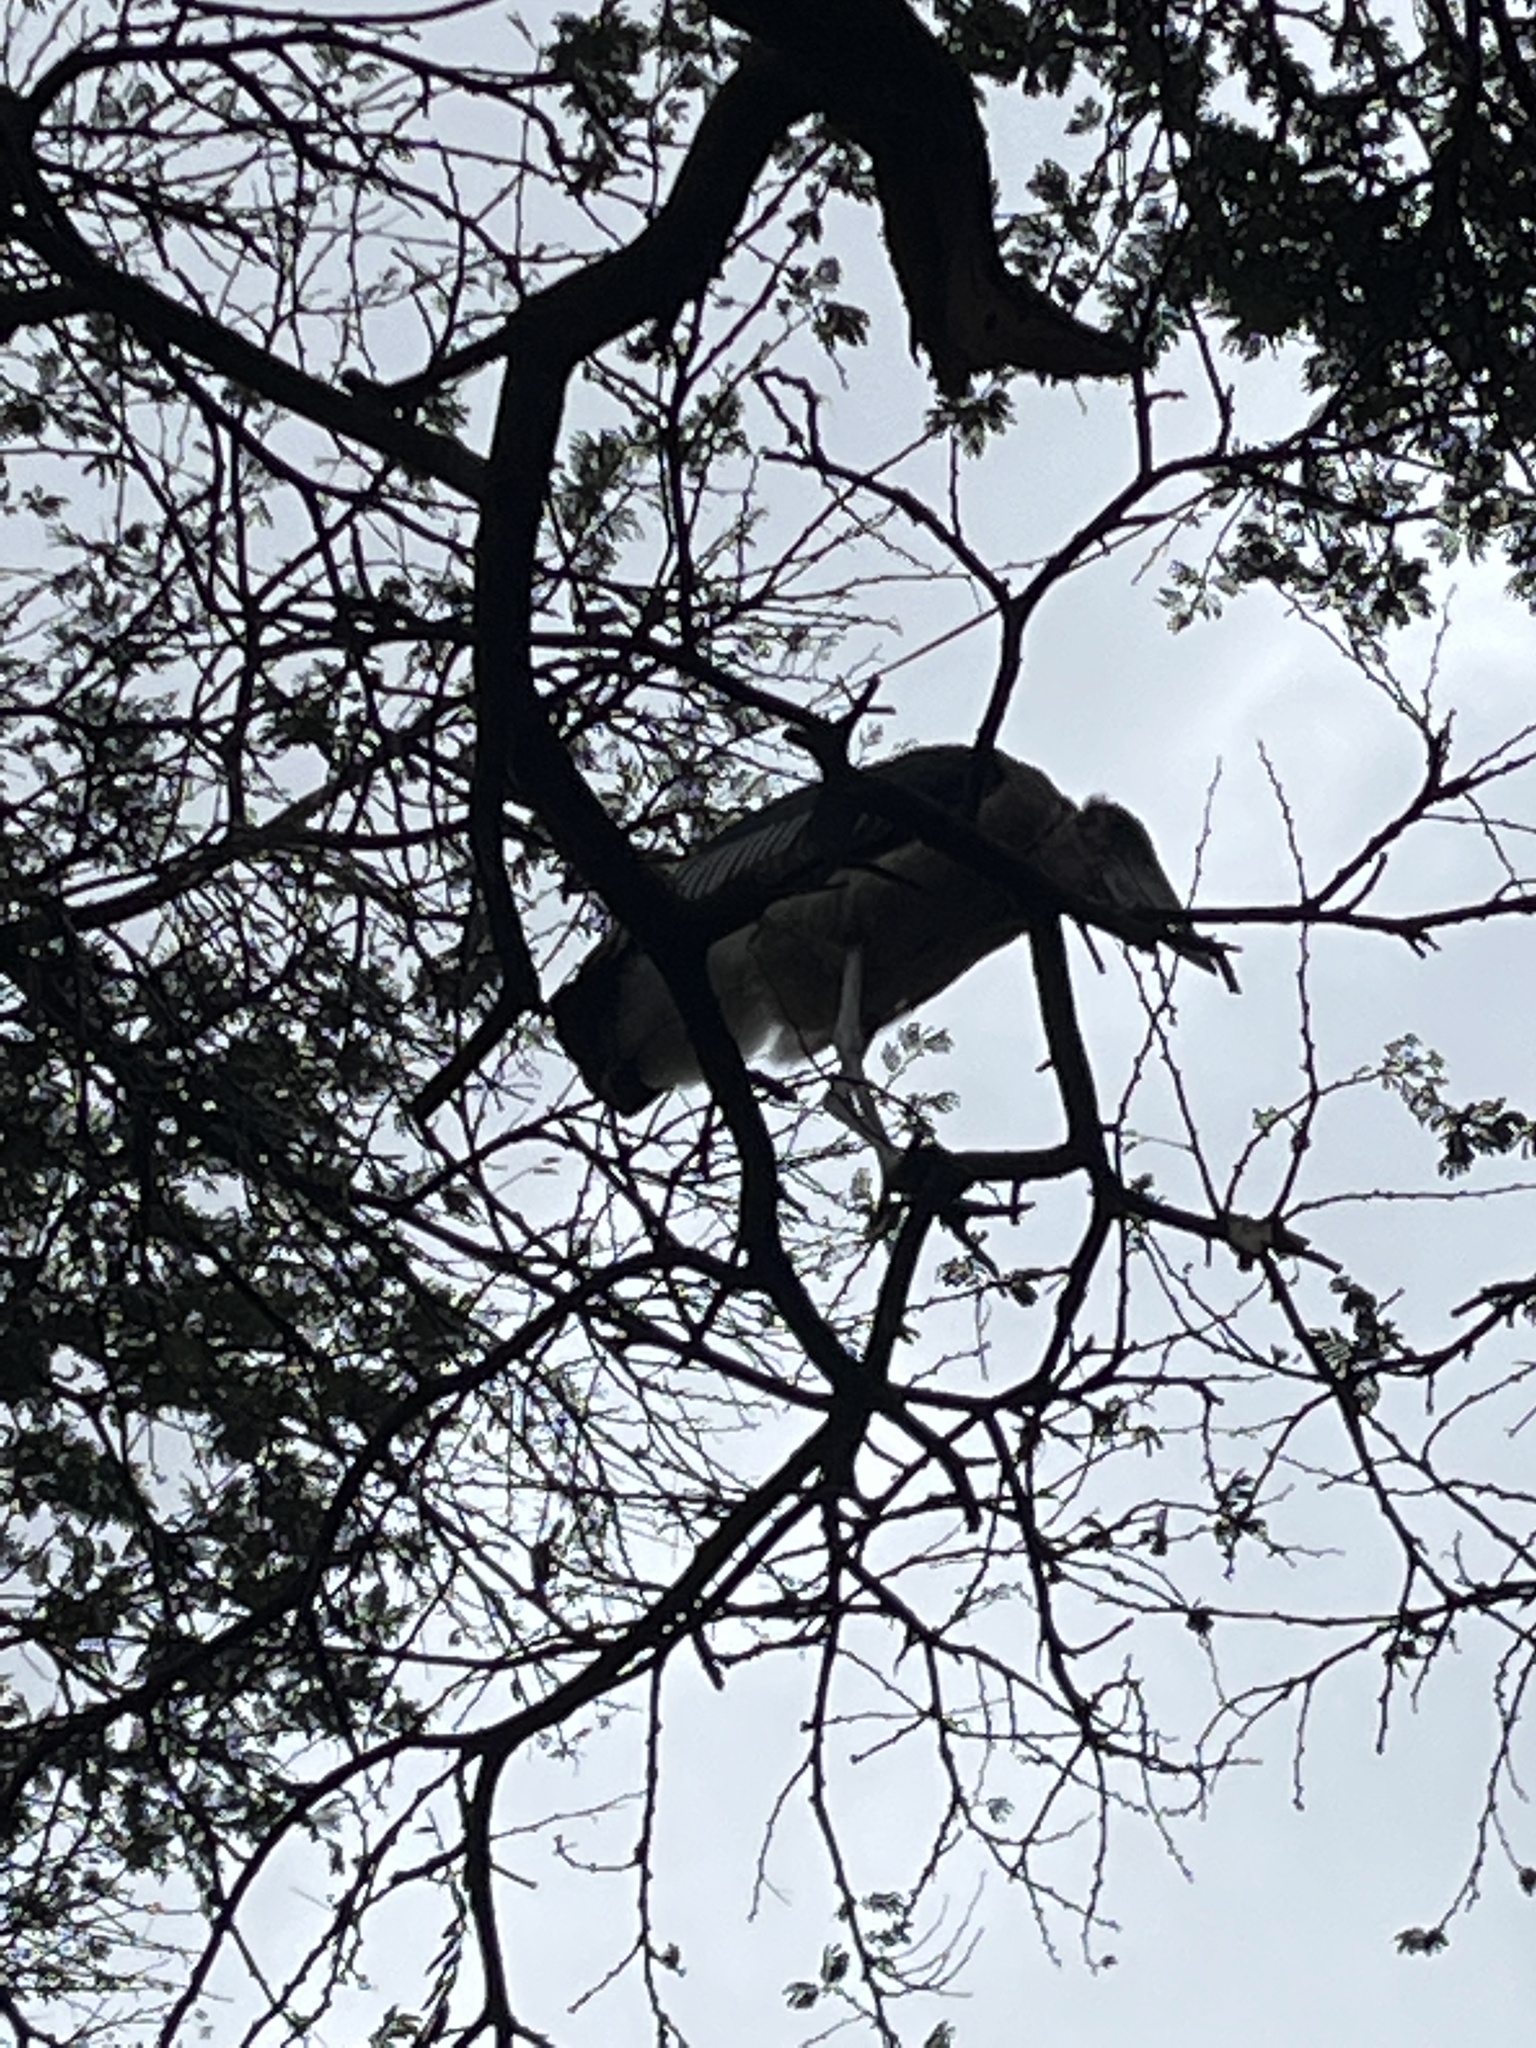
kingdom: Animalia
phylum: Chordata
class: Aves
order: Ciconiiformes
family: Ciconiidae
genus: Leptoptilos
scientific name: Leptoptilos crumenifer
